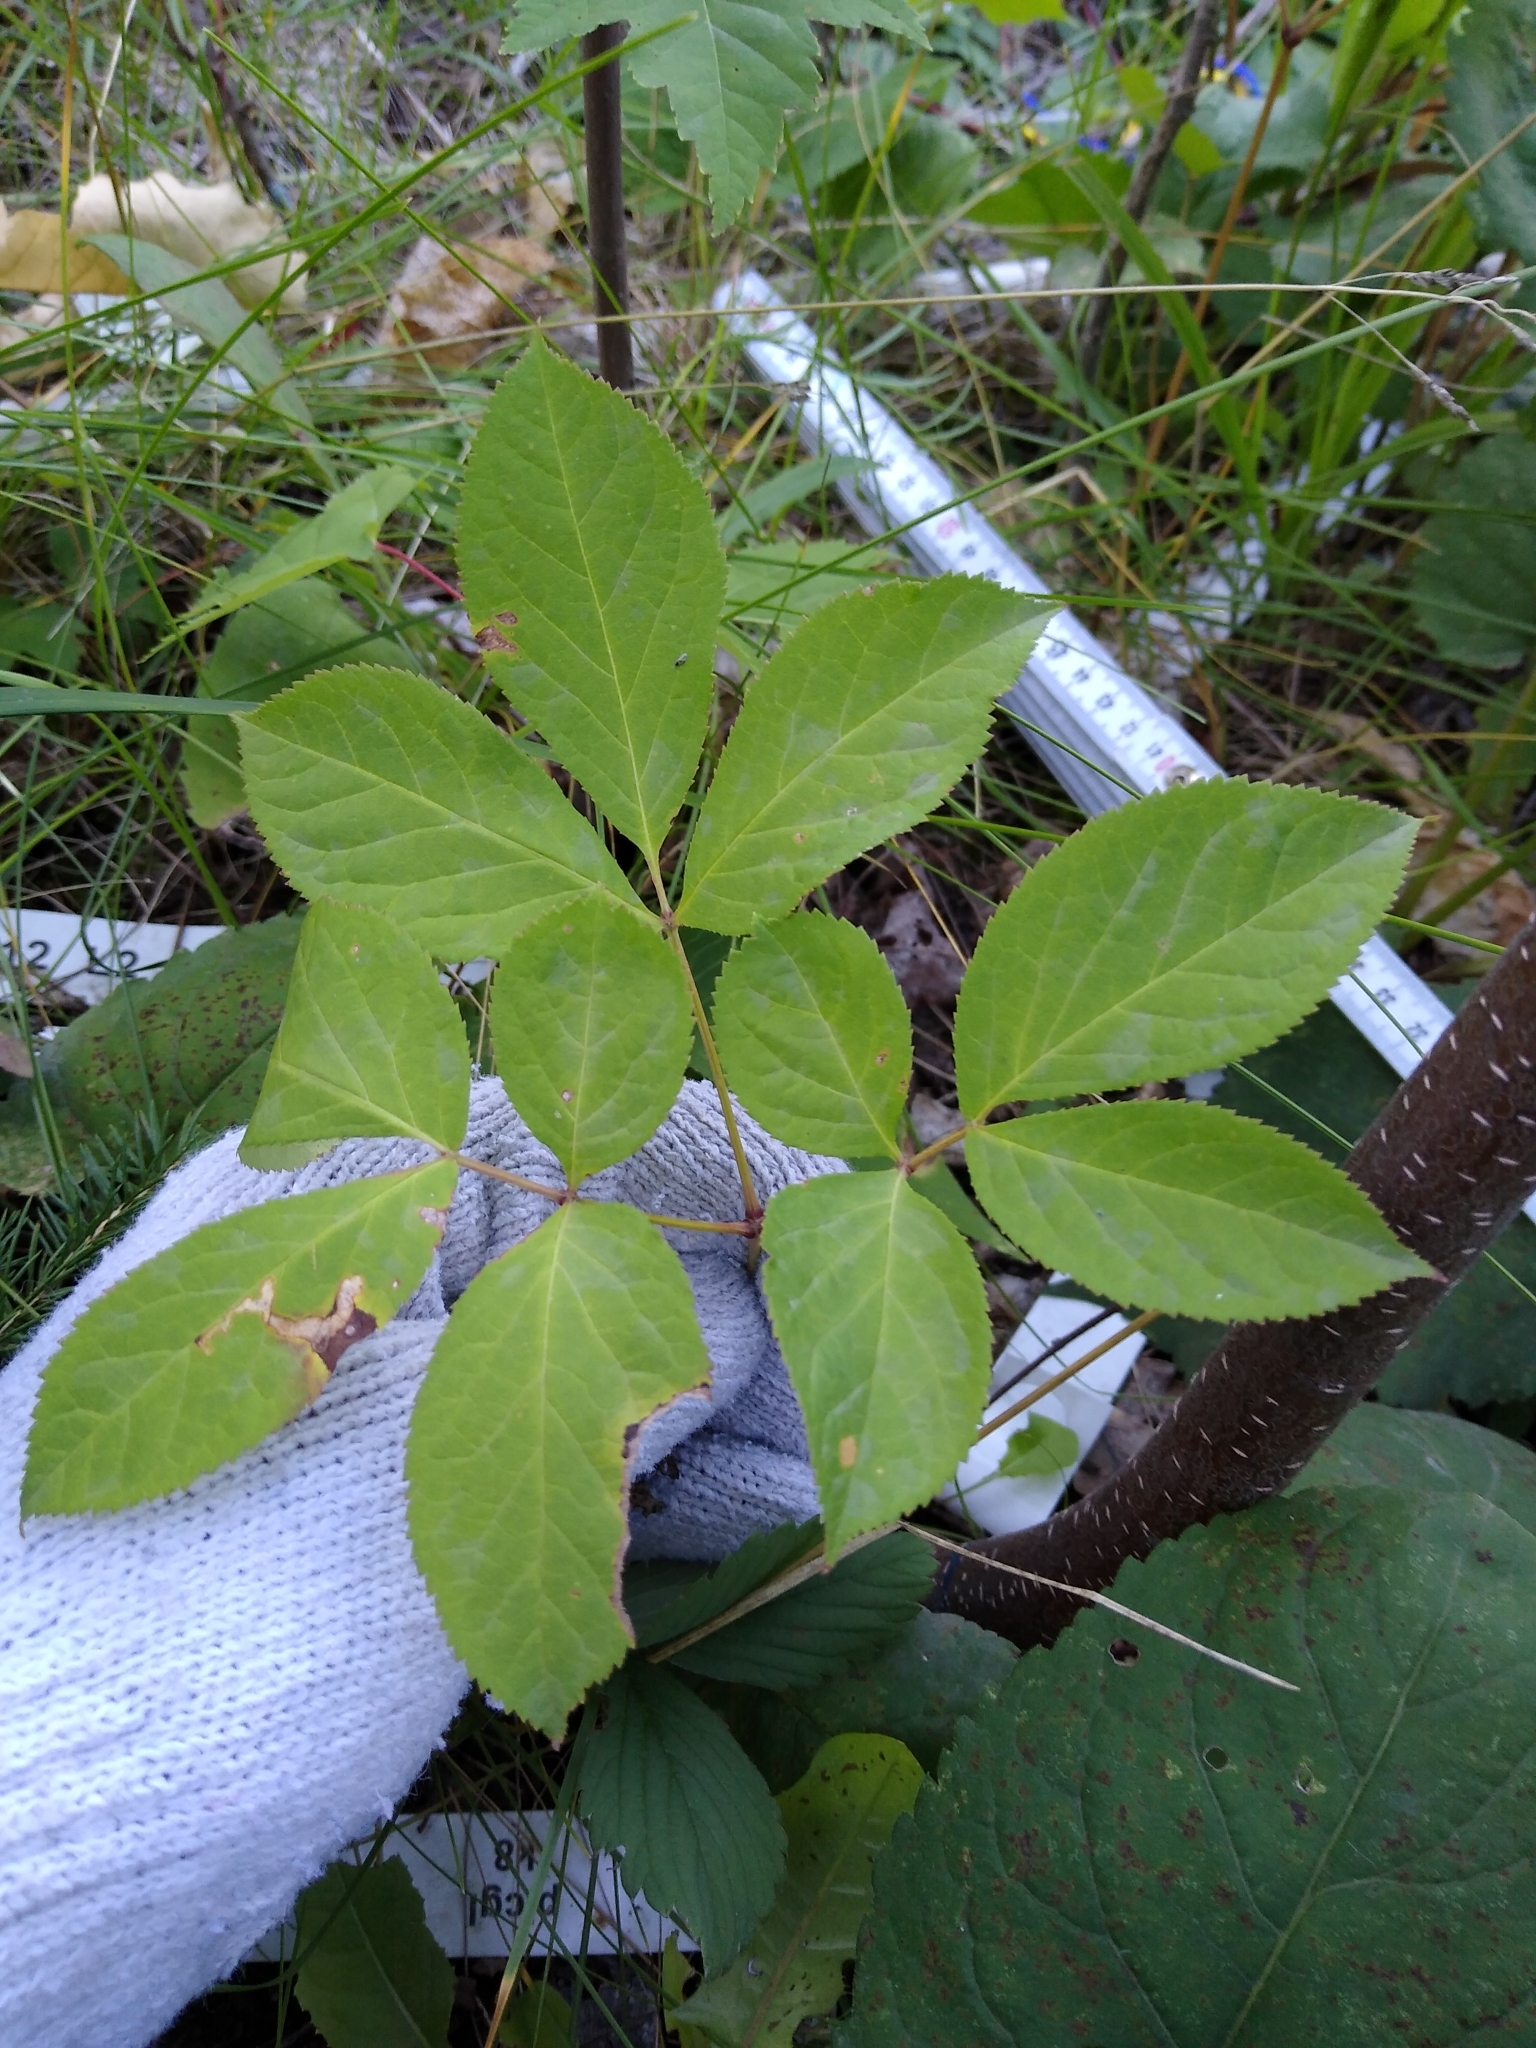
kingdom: Plantae
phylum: Tracheophyta
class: Magnoliopsida
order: Apiales
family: Araliaceae
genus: Aralia
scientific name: Aralia nudicaulis
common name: Wild sarsaparilla
